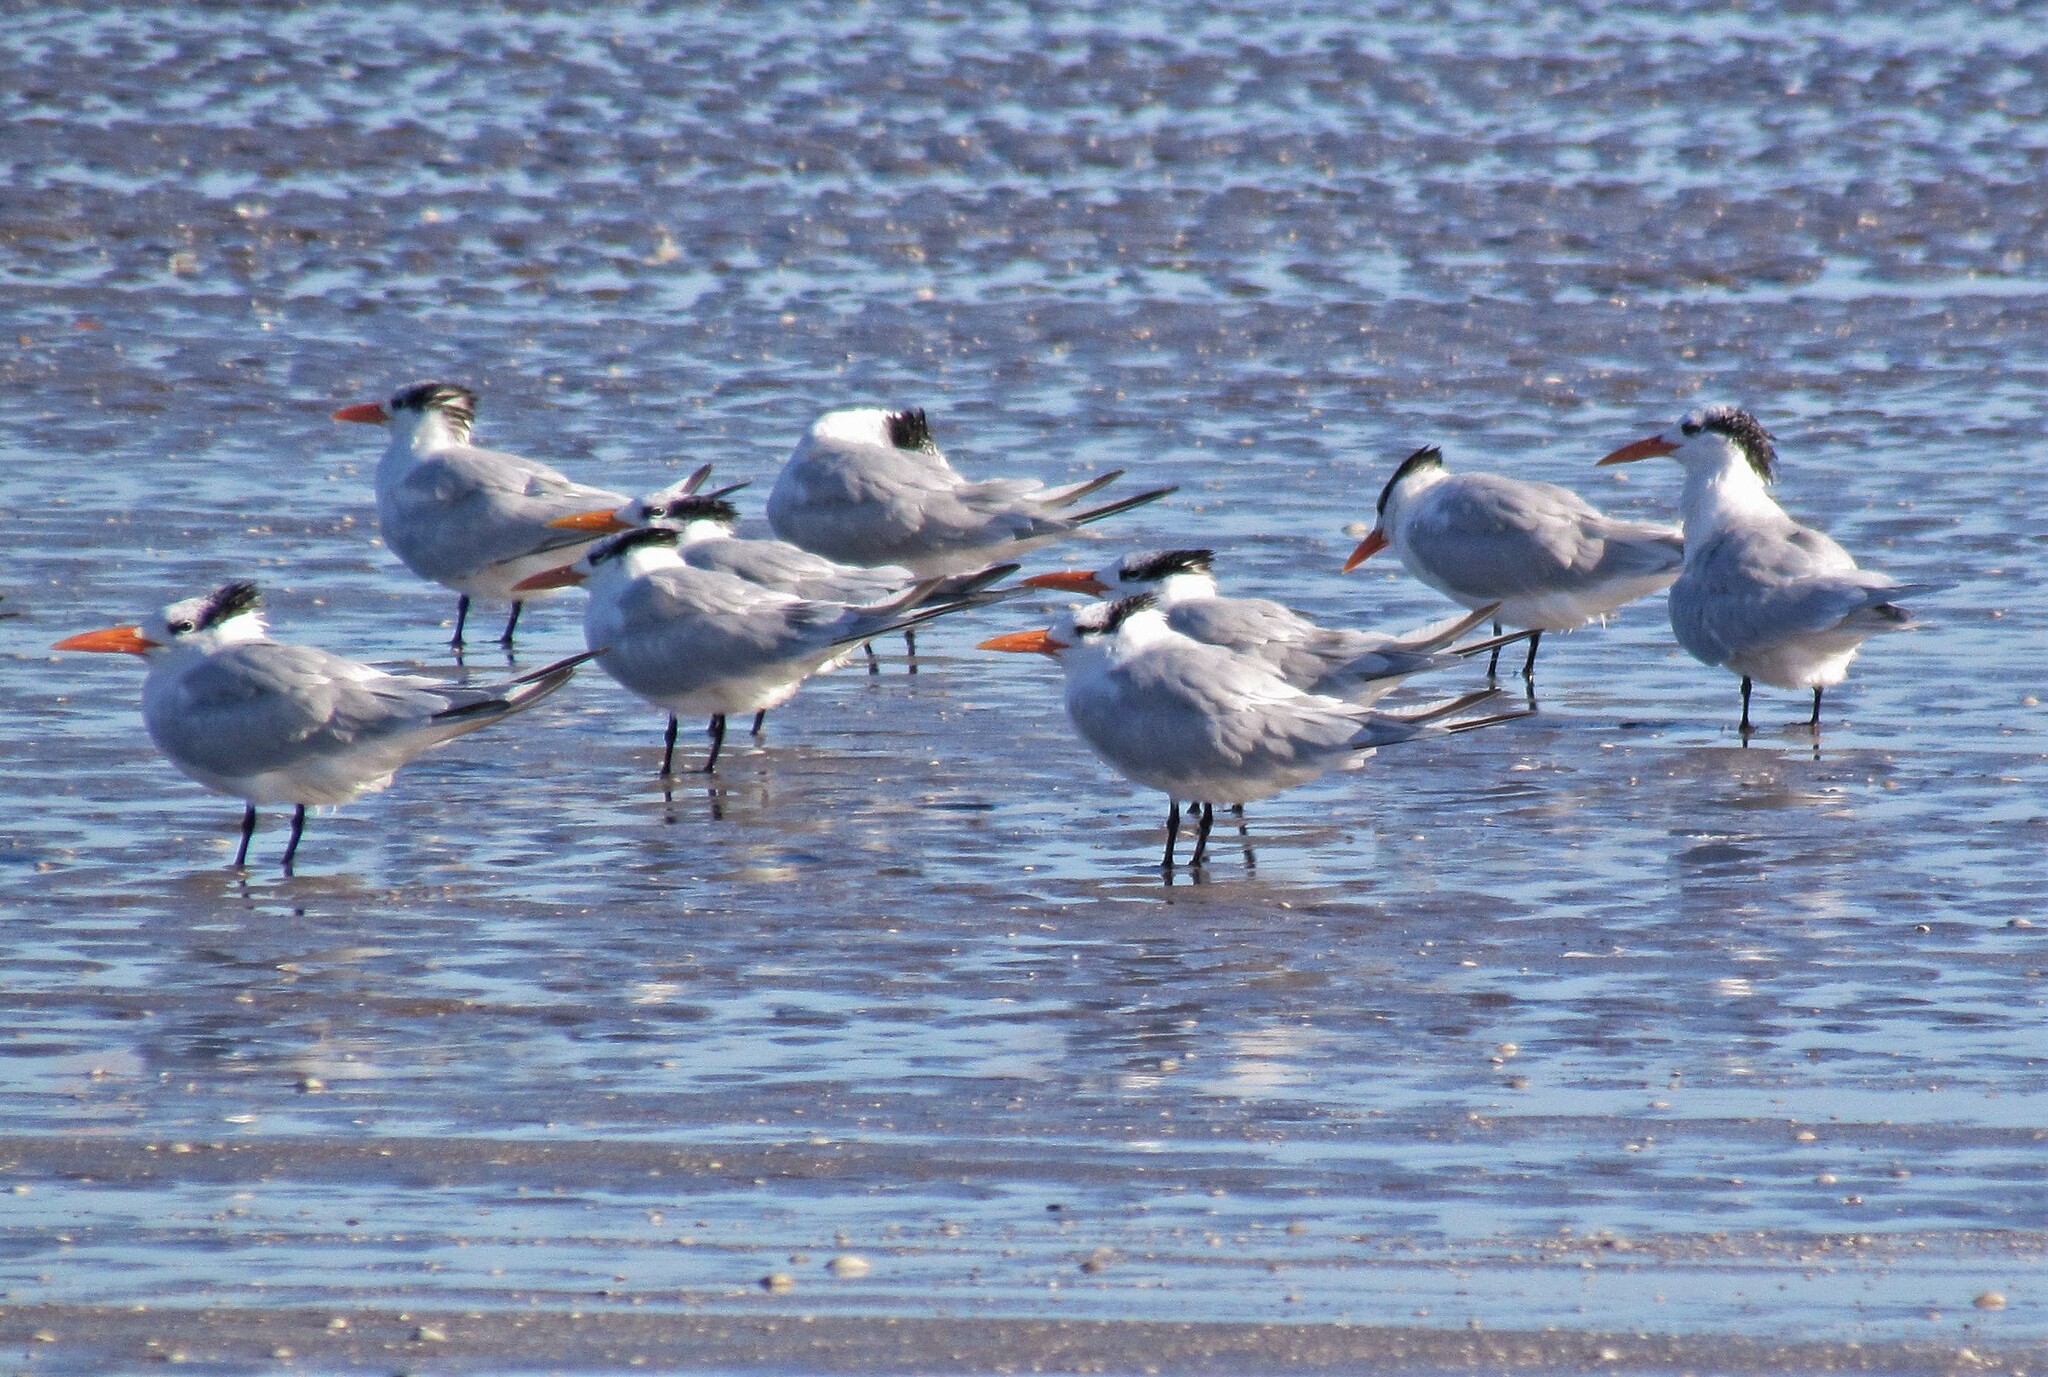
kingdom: Animalia
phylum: Chordata
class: Aves
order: Charadriiformes
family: Laridae
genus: Thalasseus
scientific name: Thalasseus maximus
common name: Royal tern
